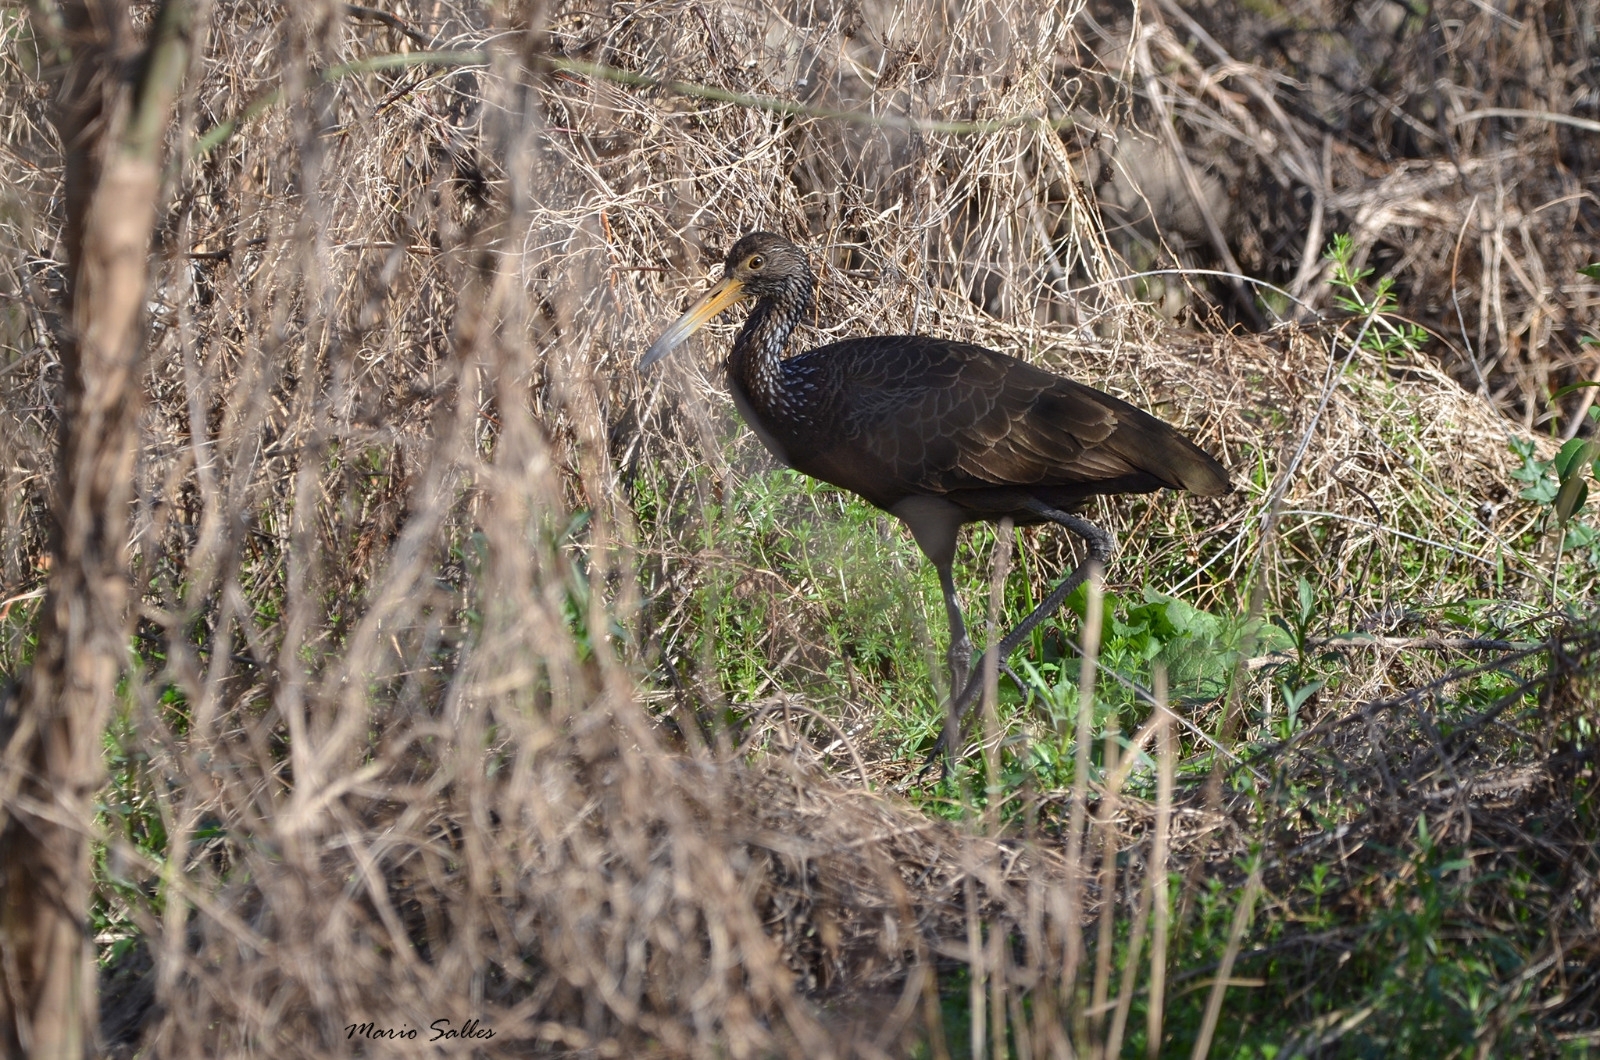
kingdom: Animalia
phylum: Chordata
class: Aves
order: Gruiformes
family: Aramidae
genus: Aramus
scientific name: Aramus guarauna
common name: Limpkin
